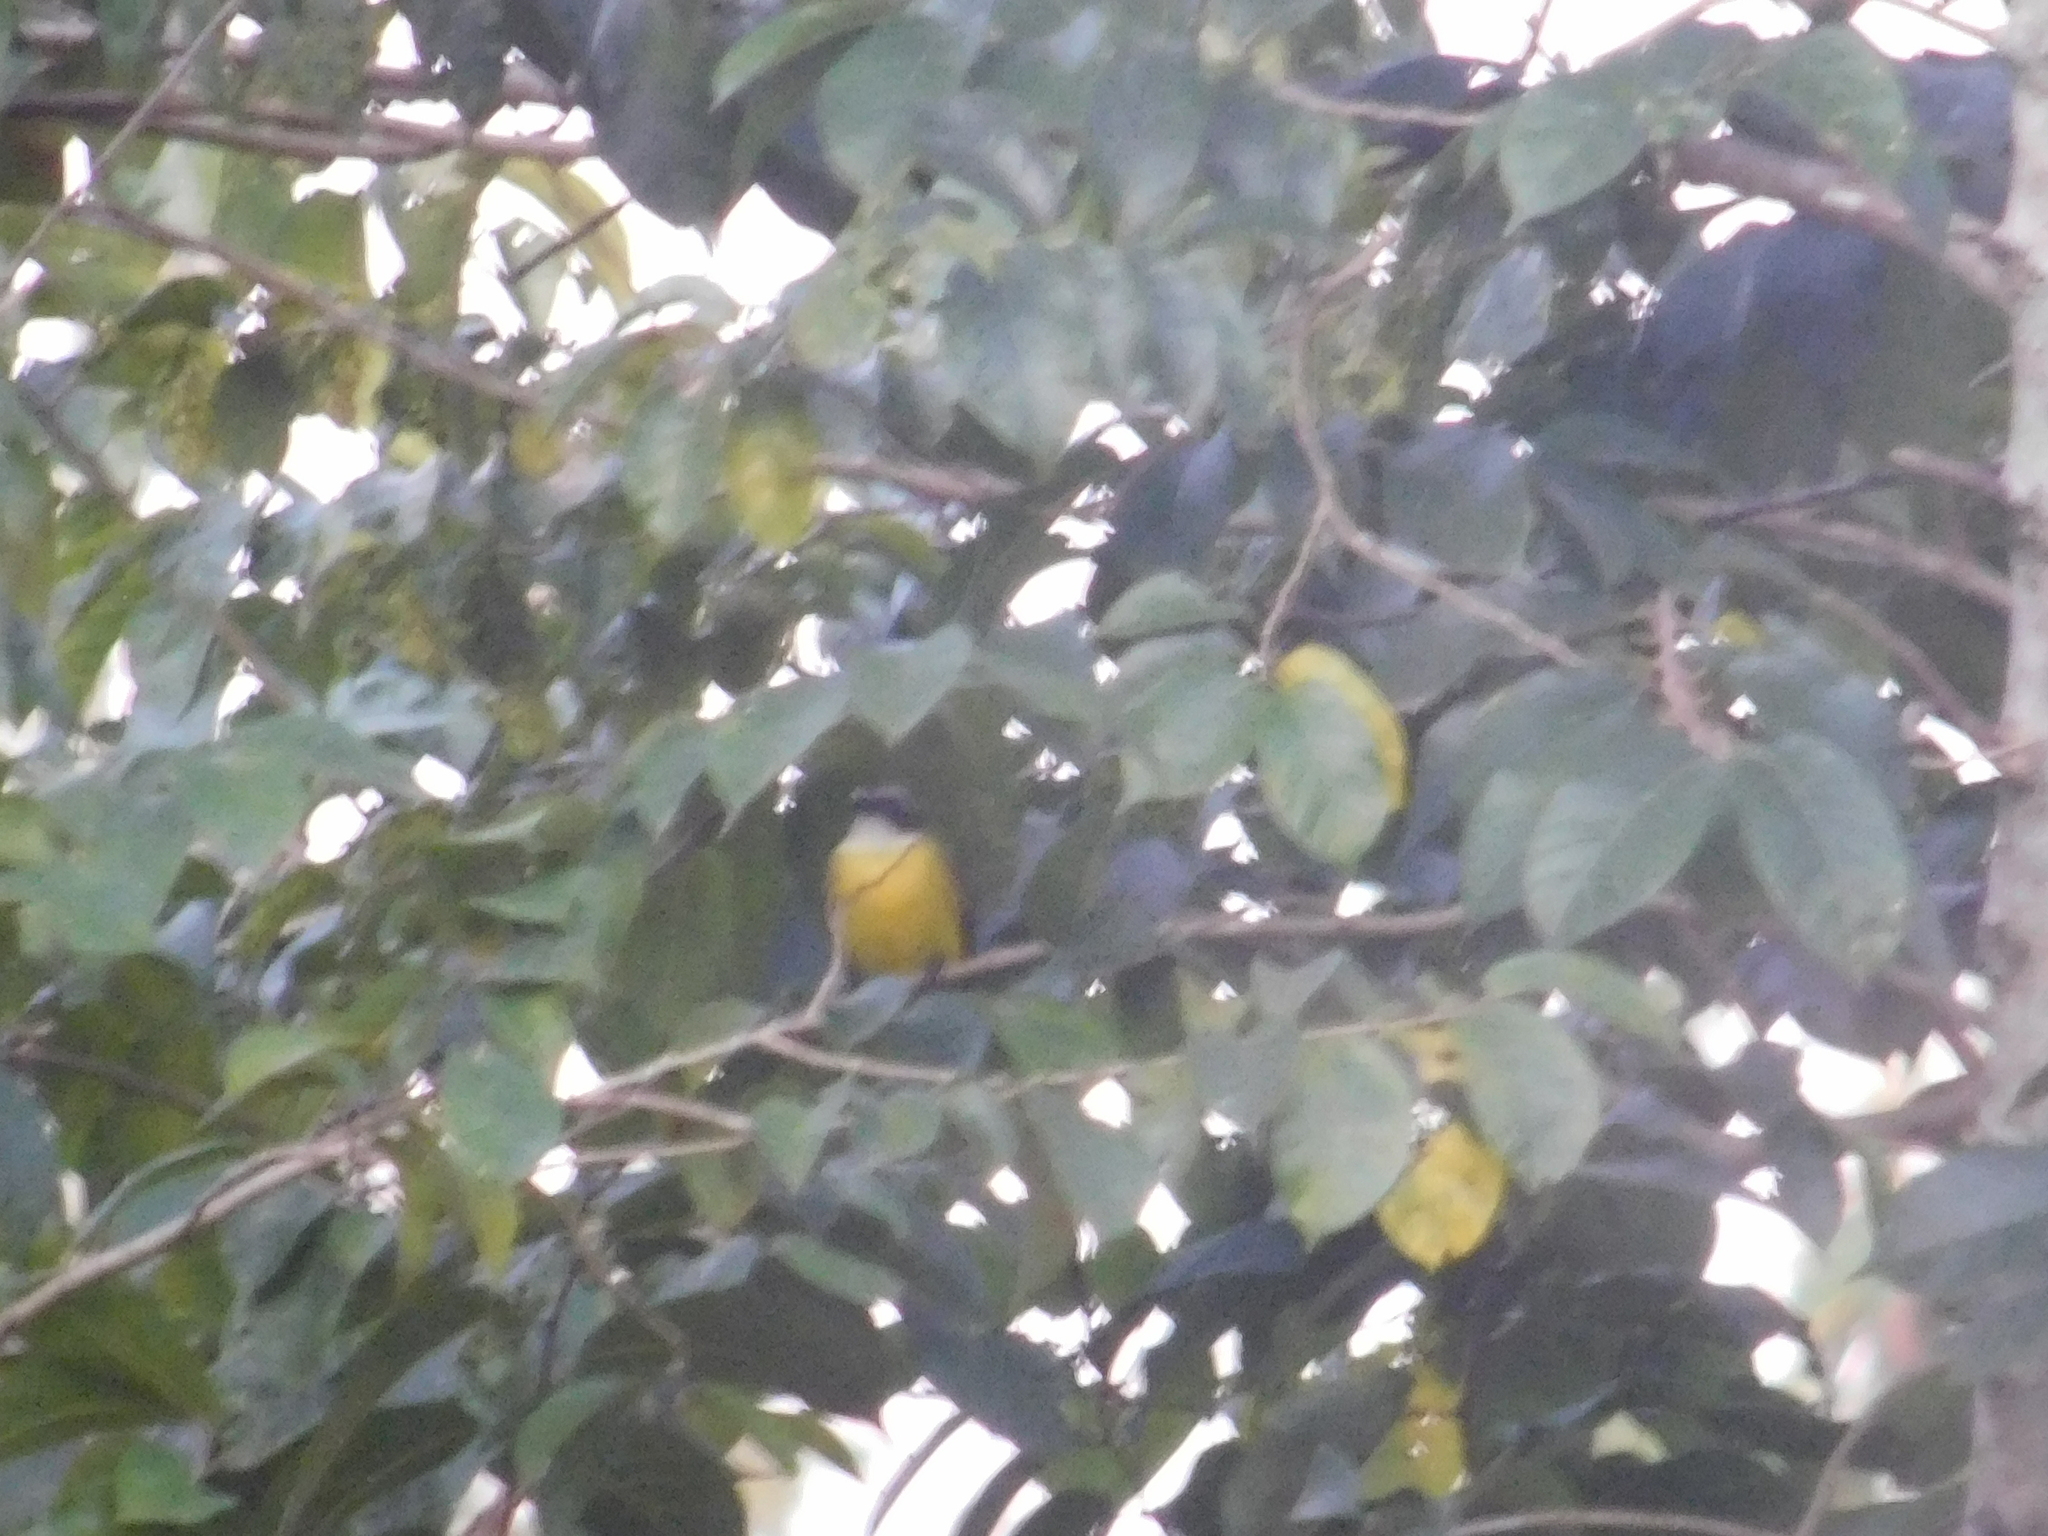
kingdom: Animalia
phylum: Chordata
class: Aves
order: Passeriformes
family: Tyrannidae
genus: Myiozetetes
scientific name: Myiozetetes similis
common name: Social flycatcher
